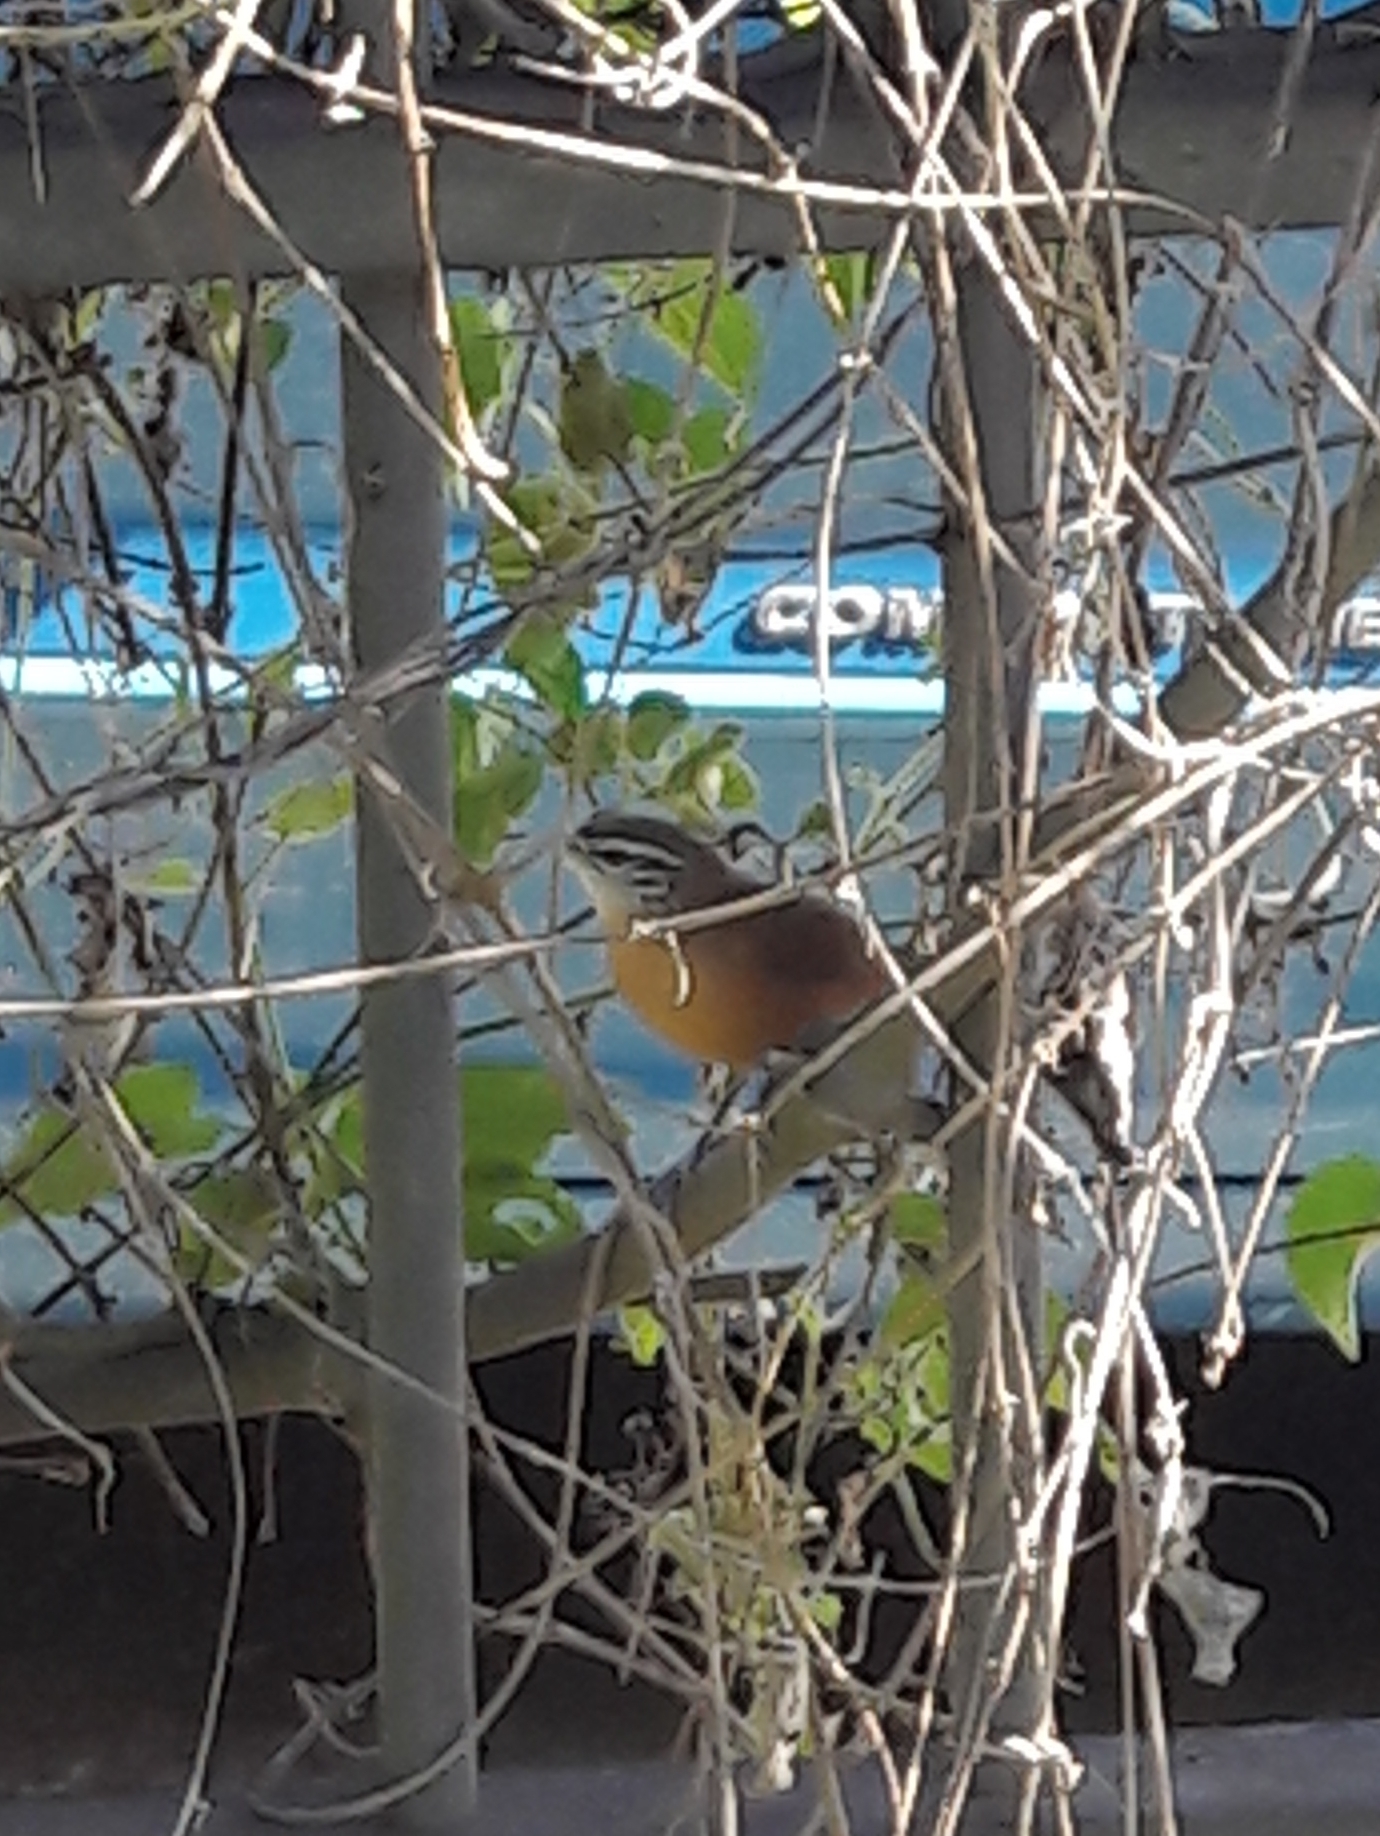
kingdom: Animalia
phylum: Chordata
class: Aves
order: Passeriformes
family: Troglodytidae
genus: Cantorchilus
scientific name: Cantorchilus leucotis
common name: Buff-breasted wren
